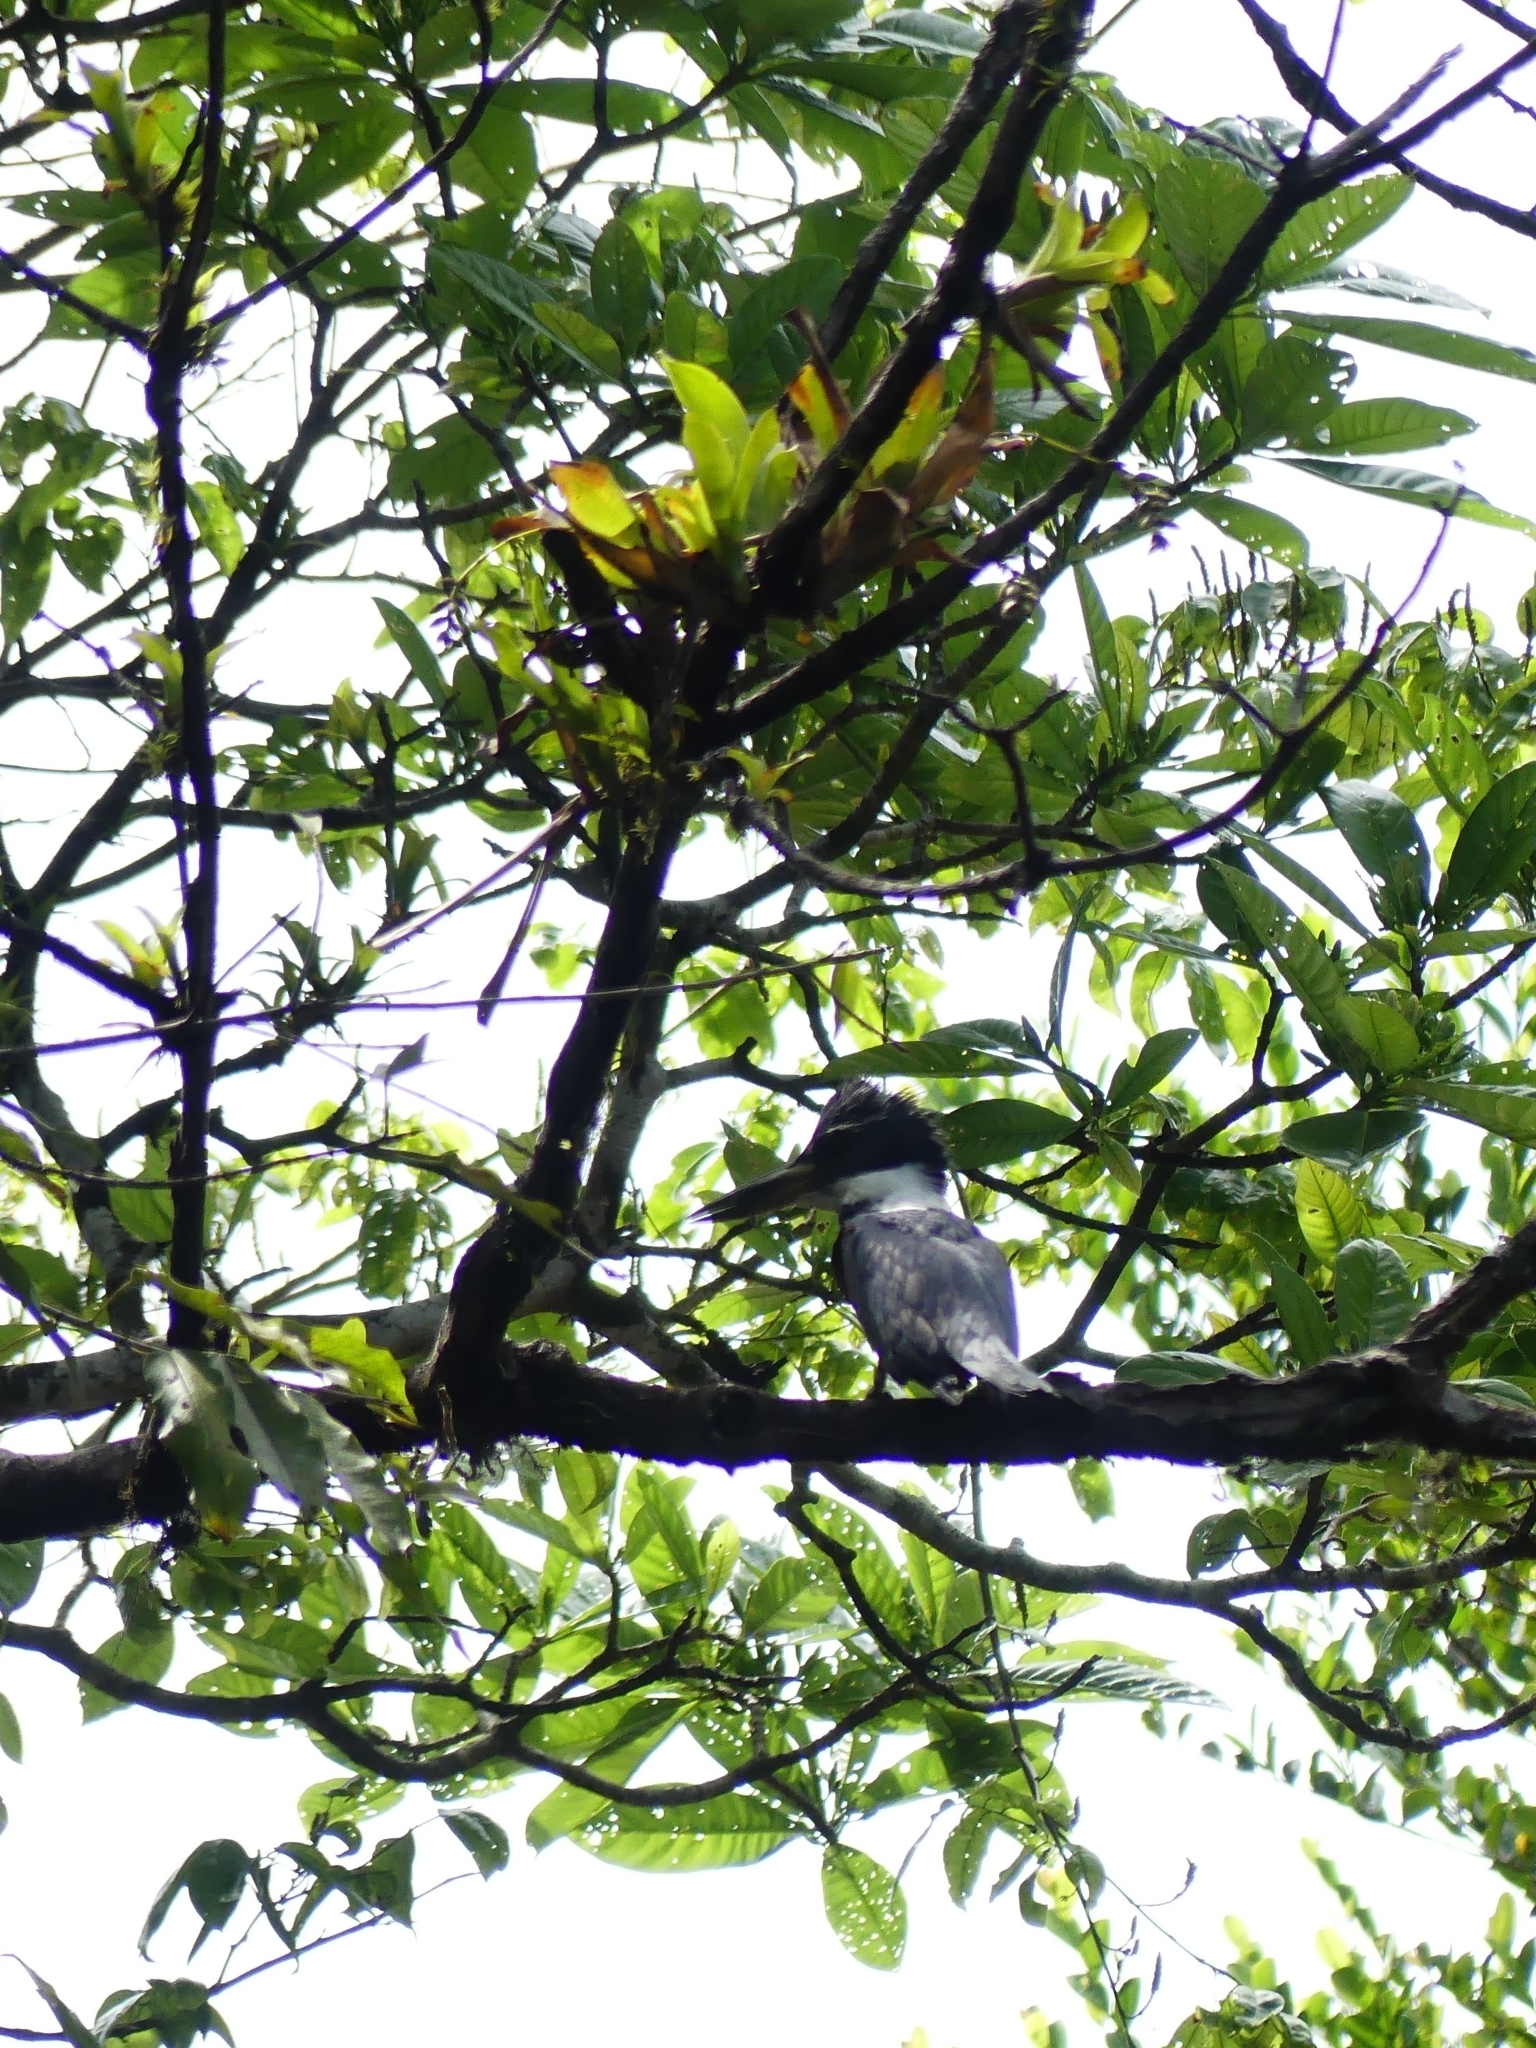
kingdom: Animalia
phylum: Chordata
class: Aves
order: Coraciiformes
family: Alcedinidae
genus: Megaceryle
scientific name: Megaceryle torquata
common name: Ringed kingfisher
